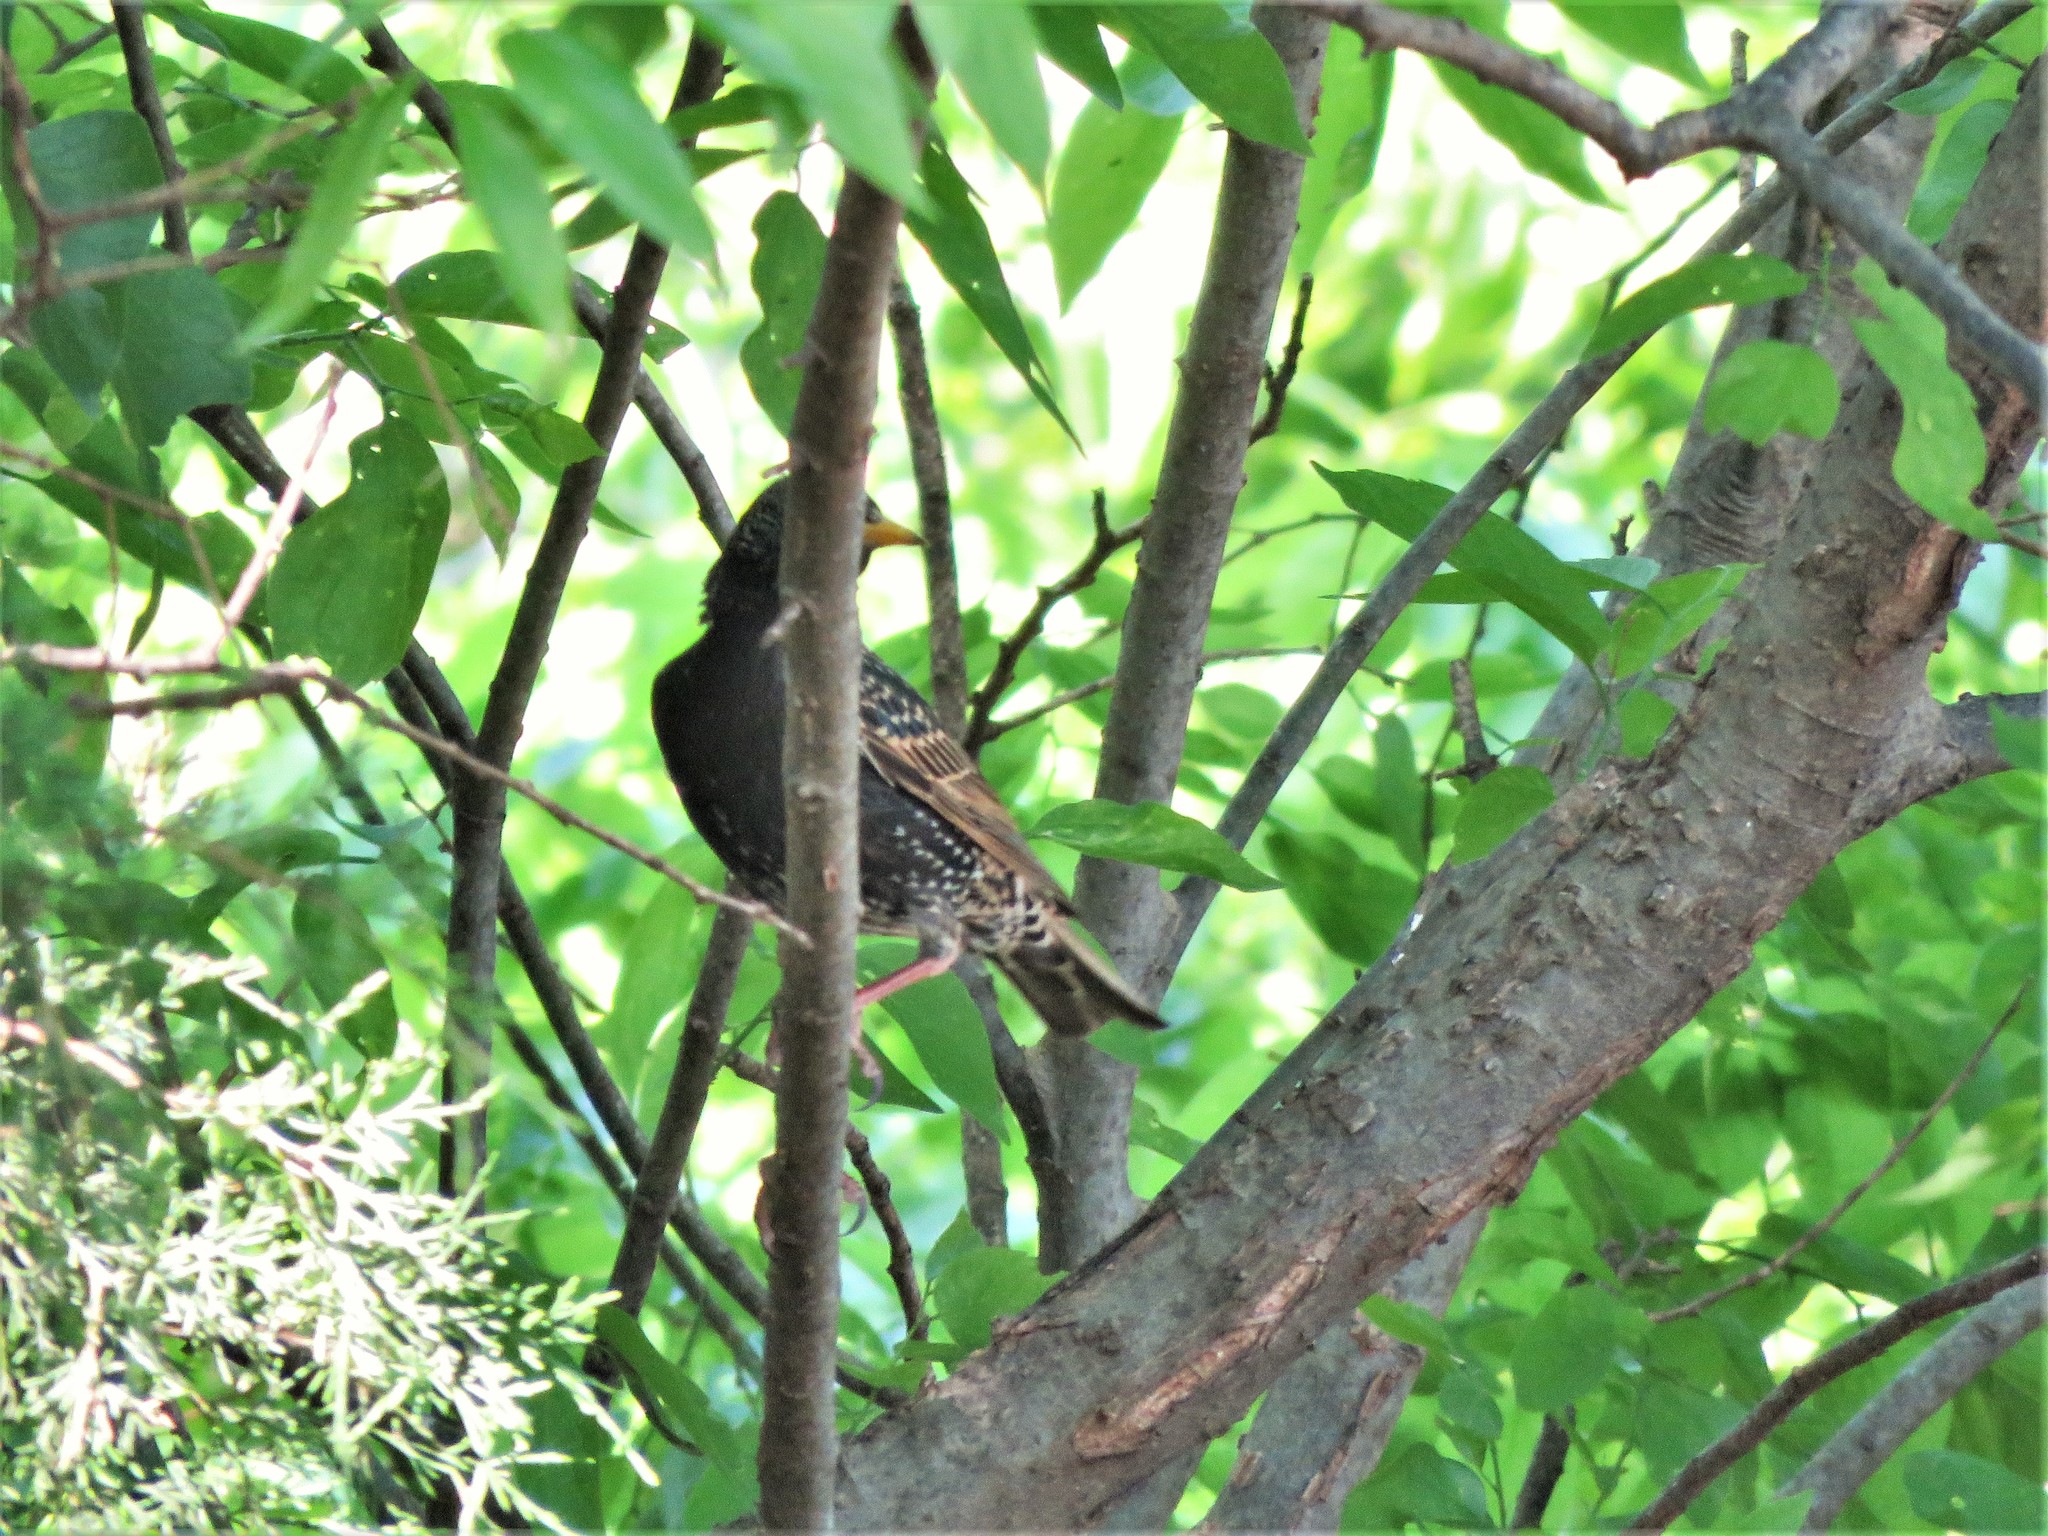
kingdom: Animalia
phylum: Chordata
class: Aves
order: Passeriformes
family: Sturnidae
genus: Sturnus
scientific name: Sturnus vulgaris
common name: Common starling
